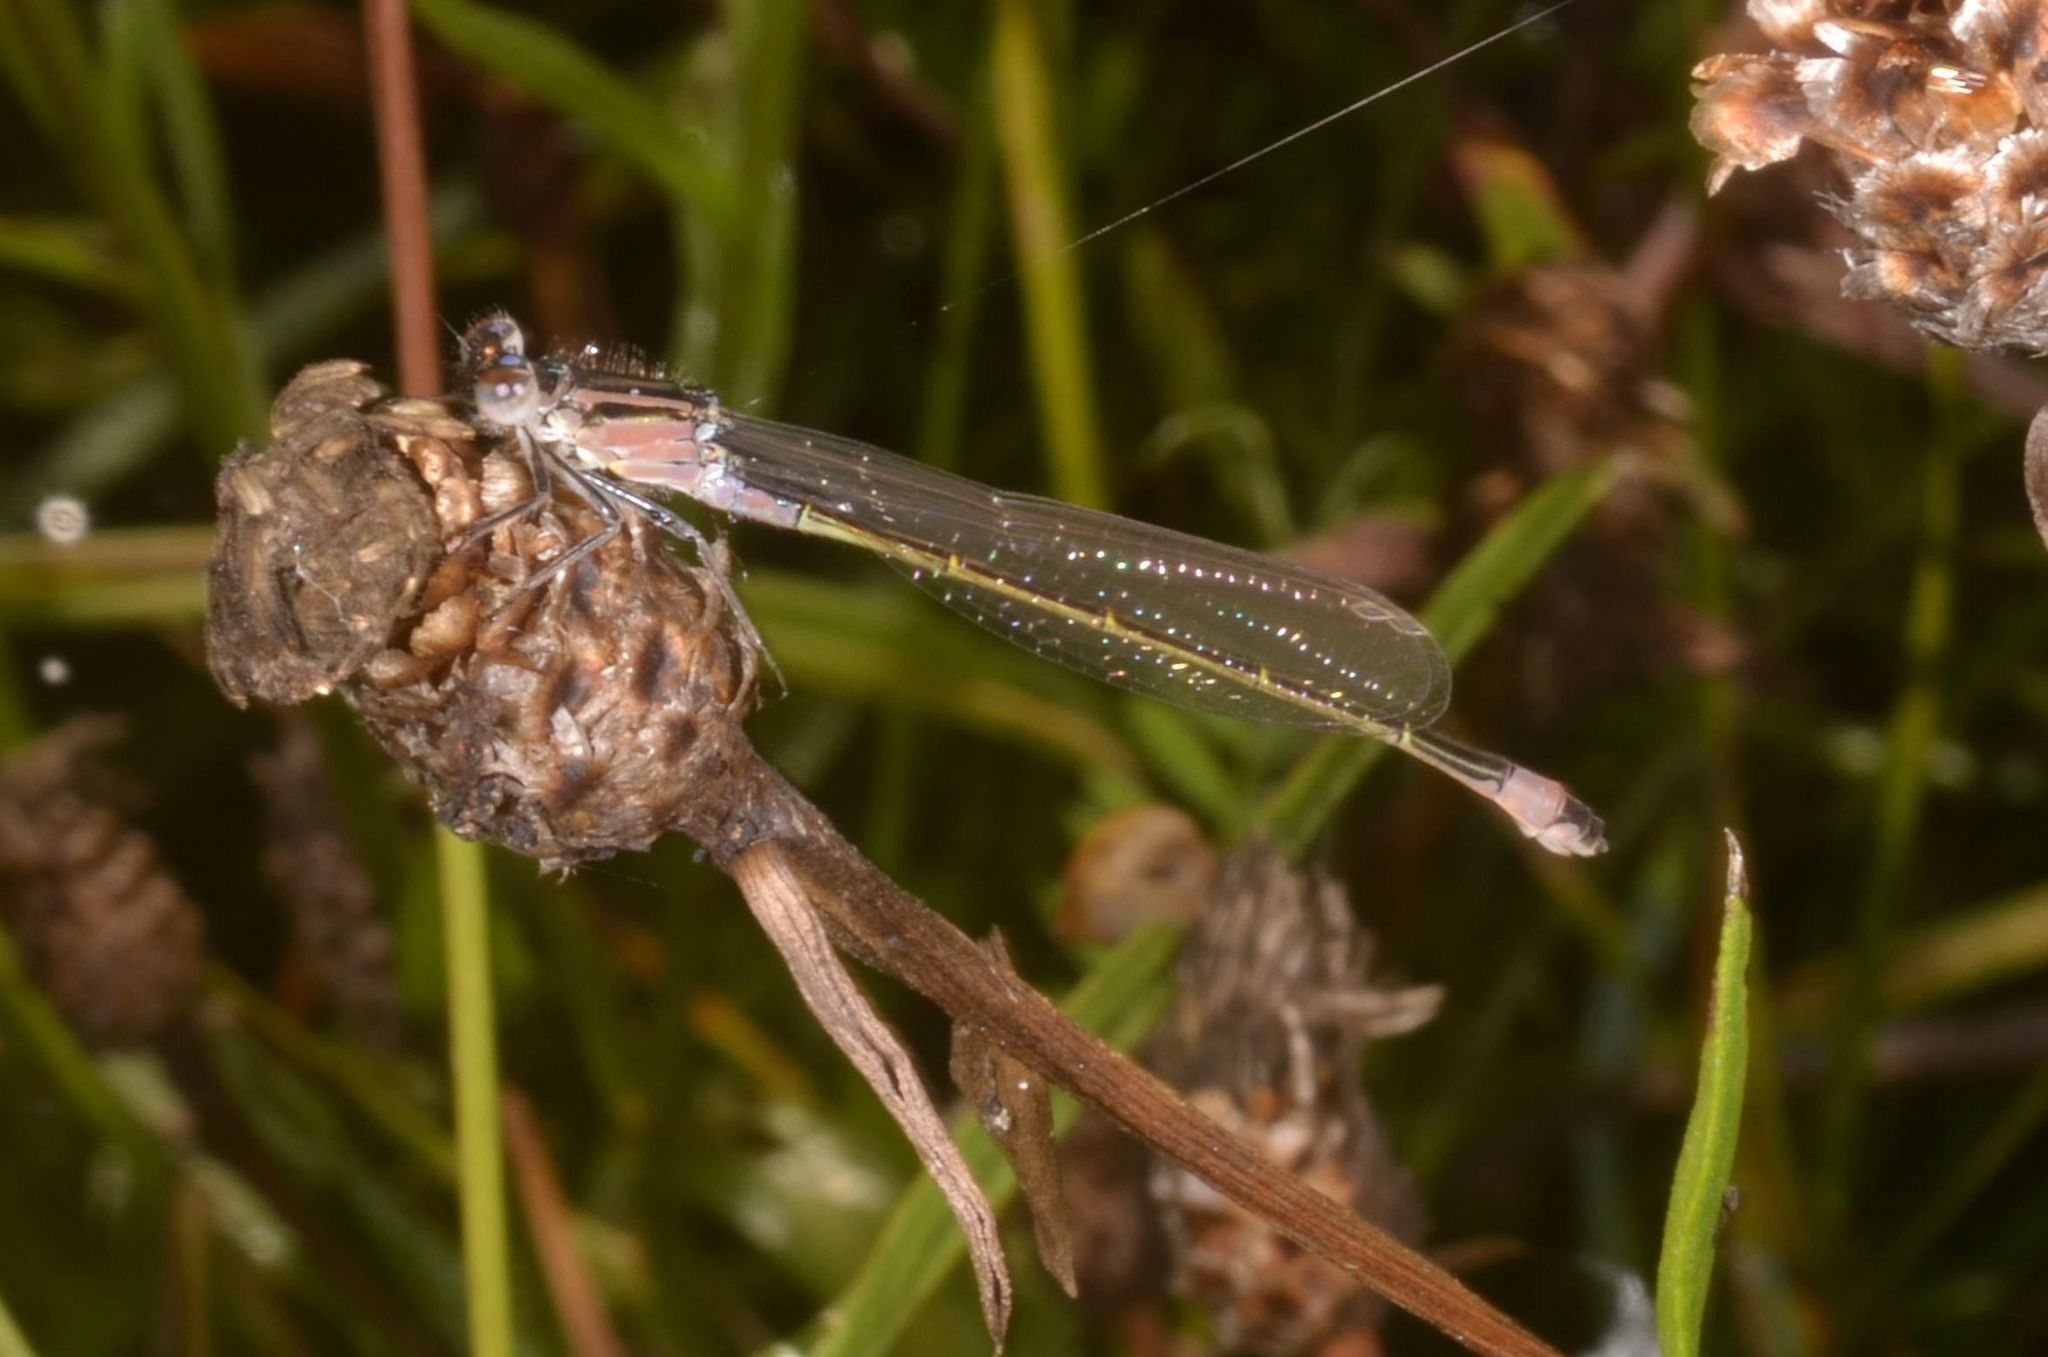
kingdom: Animalia
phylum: Arthropoda
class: Insecta
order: Odonata
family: Coenagrionidae
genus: Ischnura
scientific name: Ischnura elegans
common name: Blue-tailed damselfly
